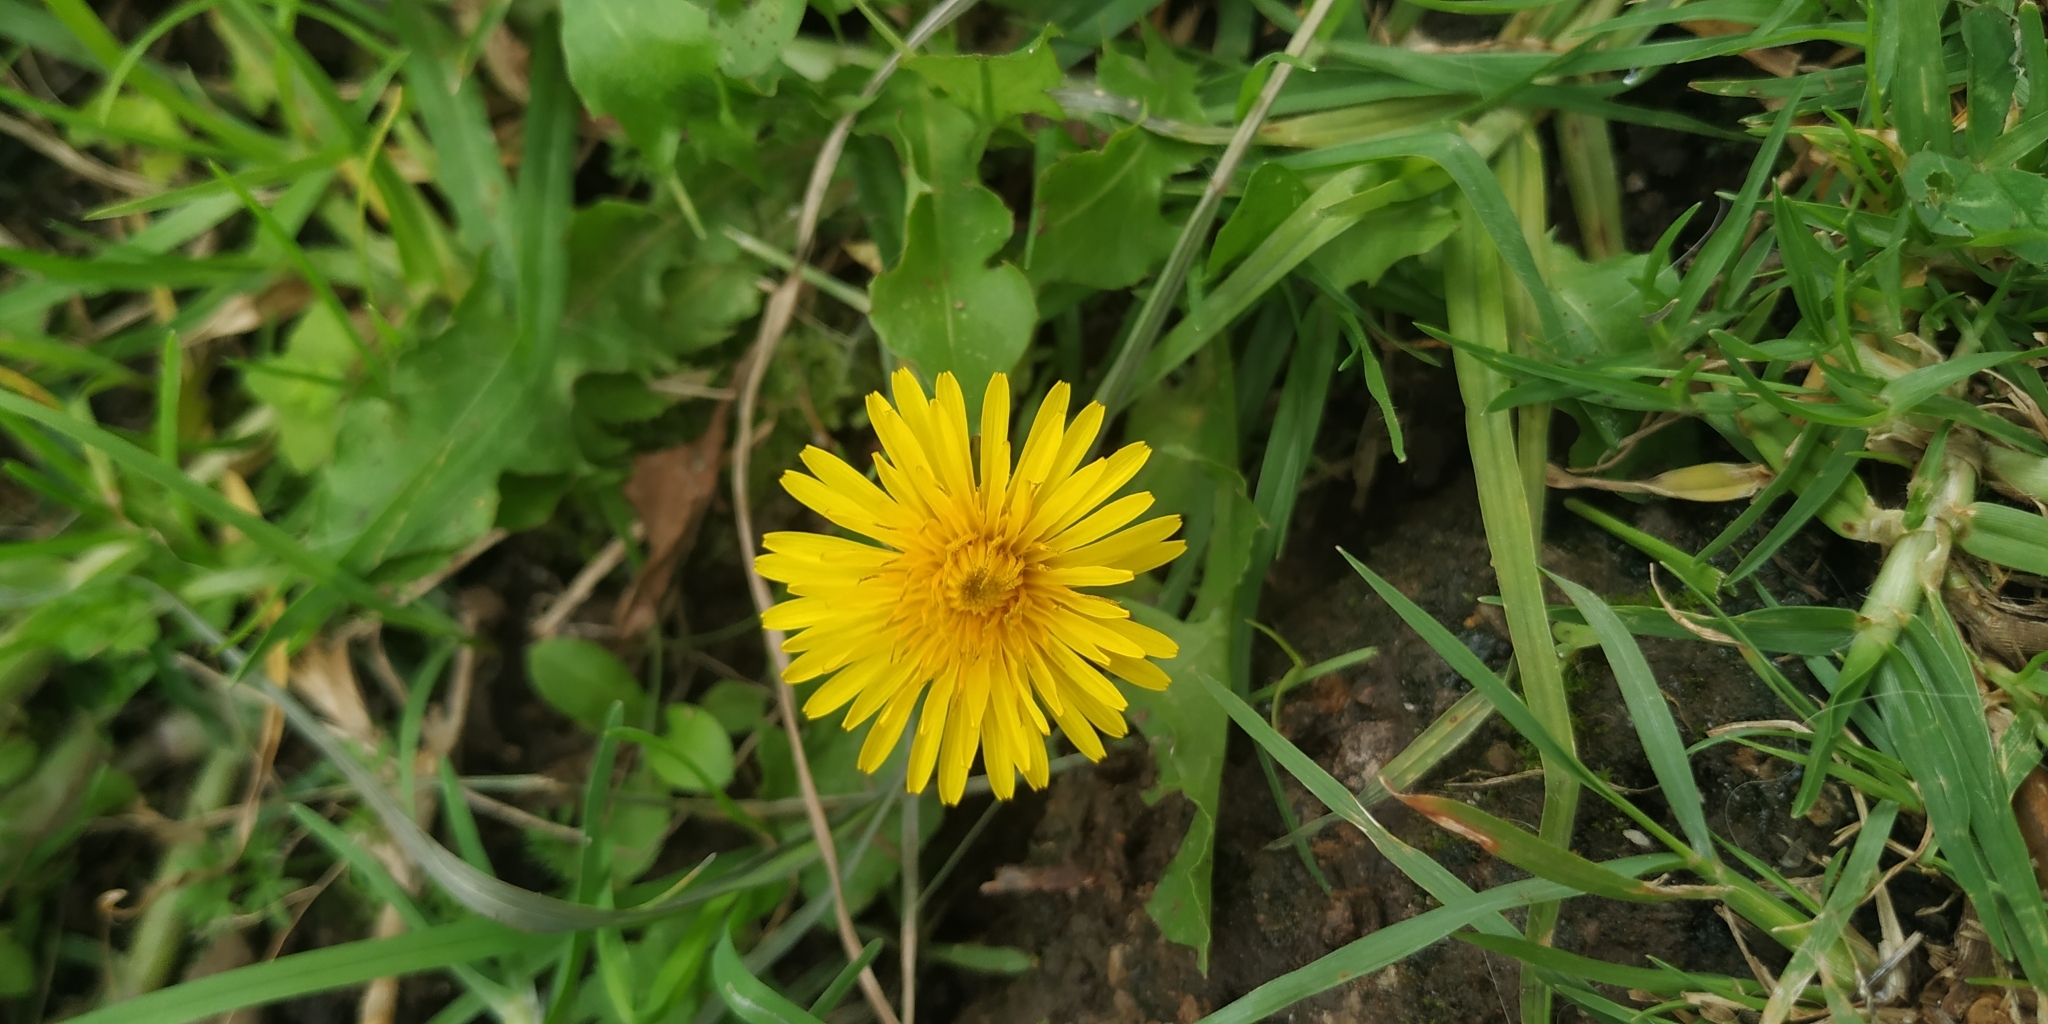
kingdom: Plantae
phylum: Tracheophyta
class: Magnoliopsida
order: Asterales
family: Asteraceae
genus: Taraxacum
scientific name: Taraxacum officinale
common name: Common dandelion
